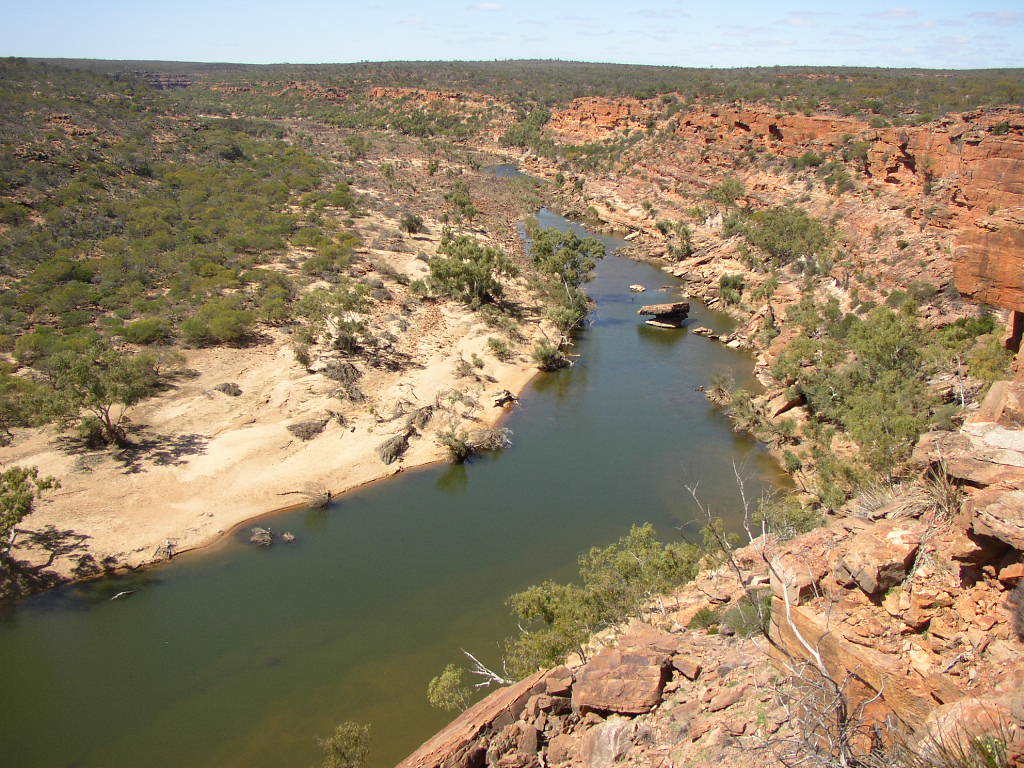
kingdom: Plantae
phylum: Tracheophyta
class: Magnoliopsida
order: Myrtales
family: Myrtaceae
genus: Eucalyptus
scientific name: Eucalyptus camaldulensis
